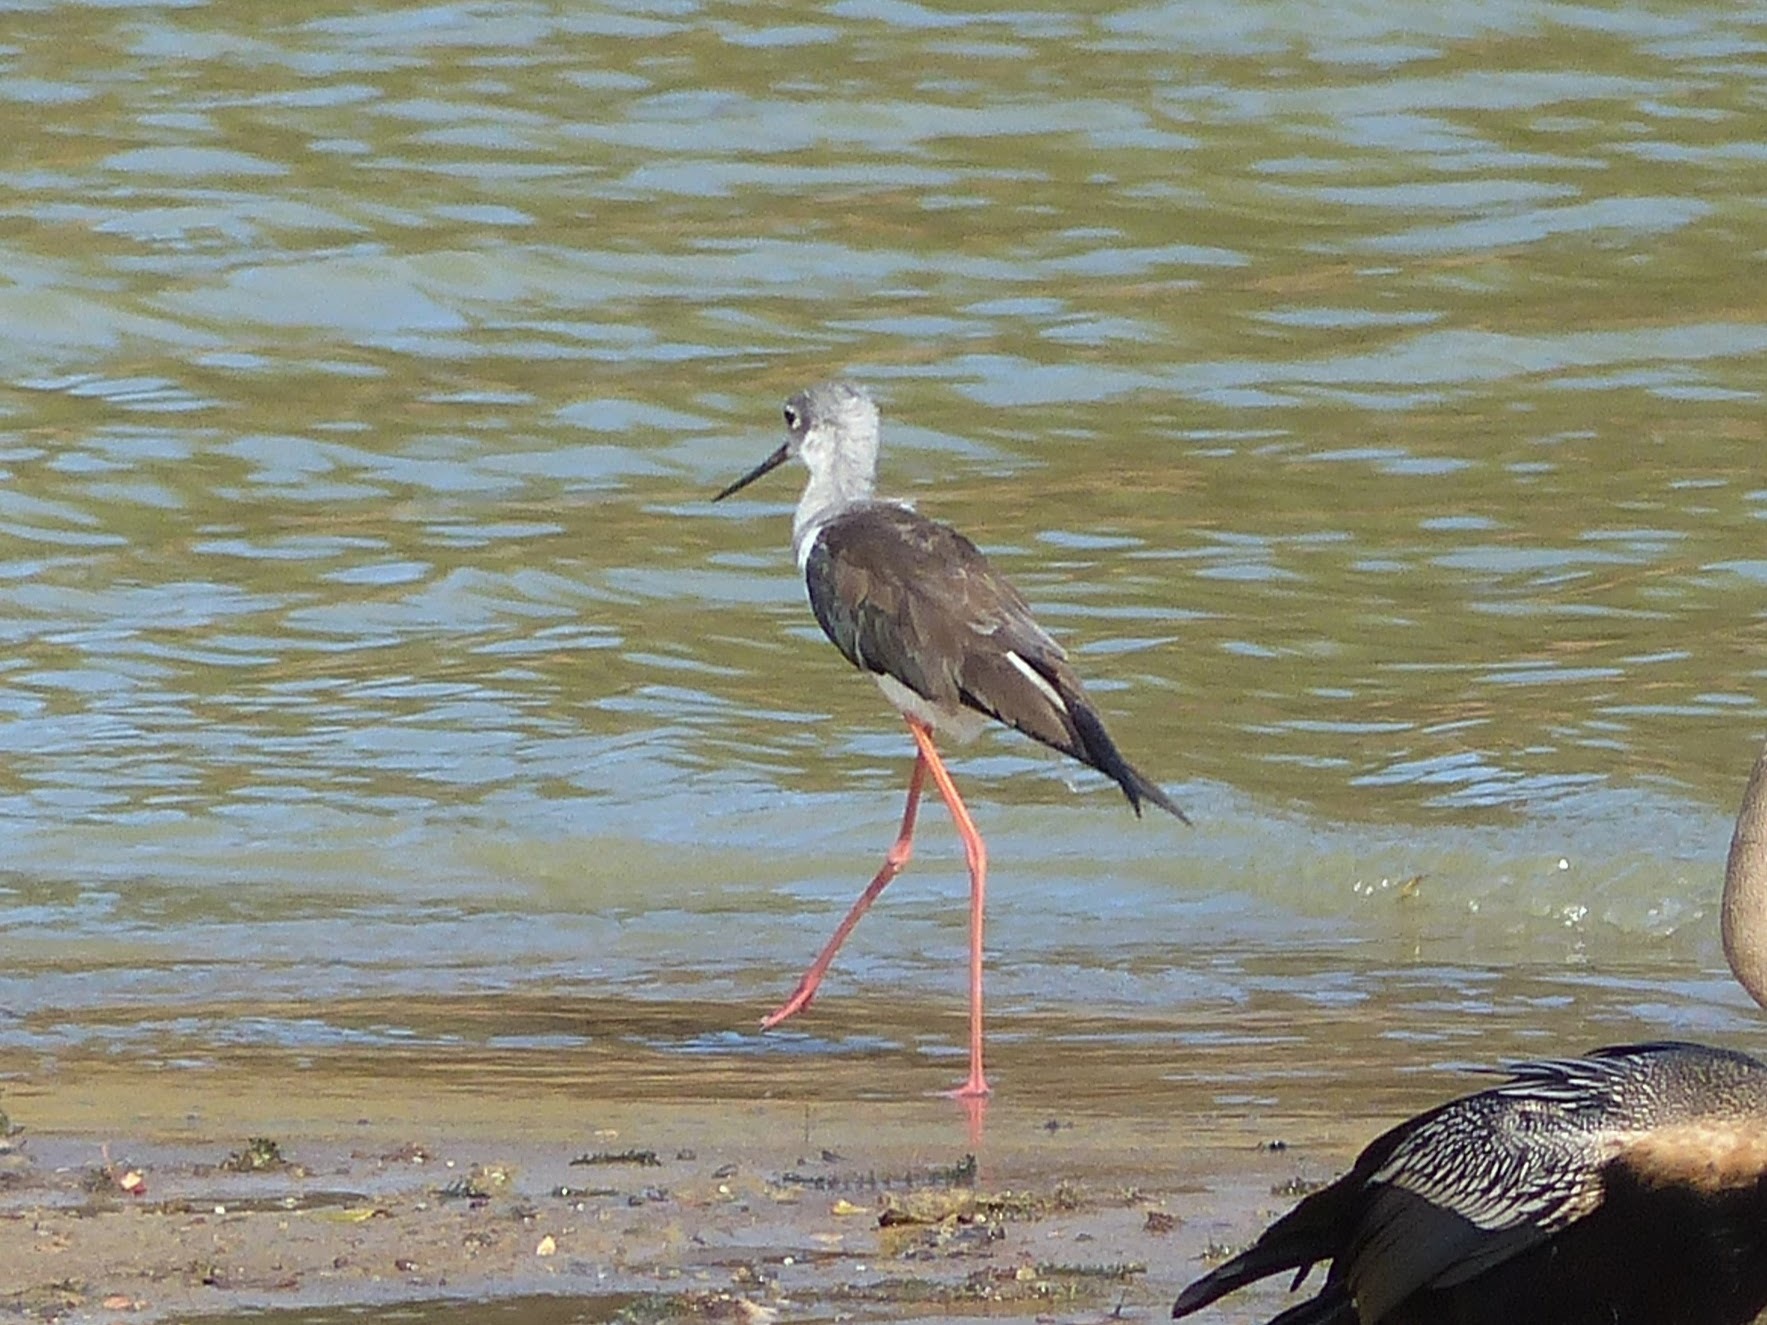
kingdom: Animalia
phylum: Chordata
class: Aves
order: Charadriiformes
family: Recurvirostridae
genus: Himantopus
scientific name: Himantopus himantopus
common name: Black-winged stilt
